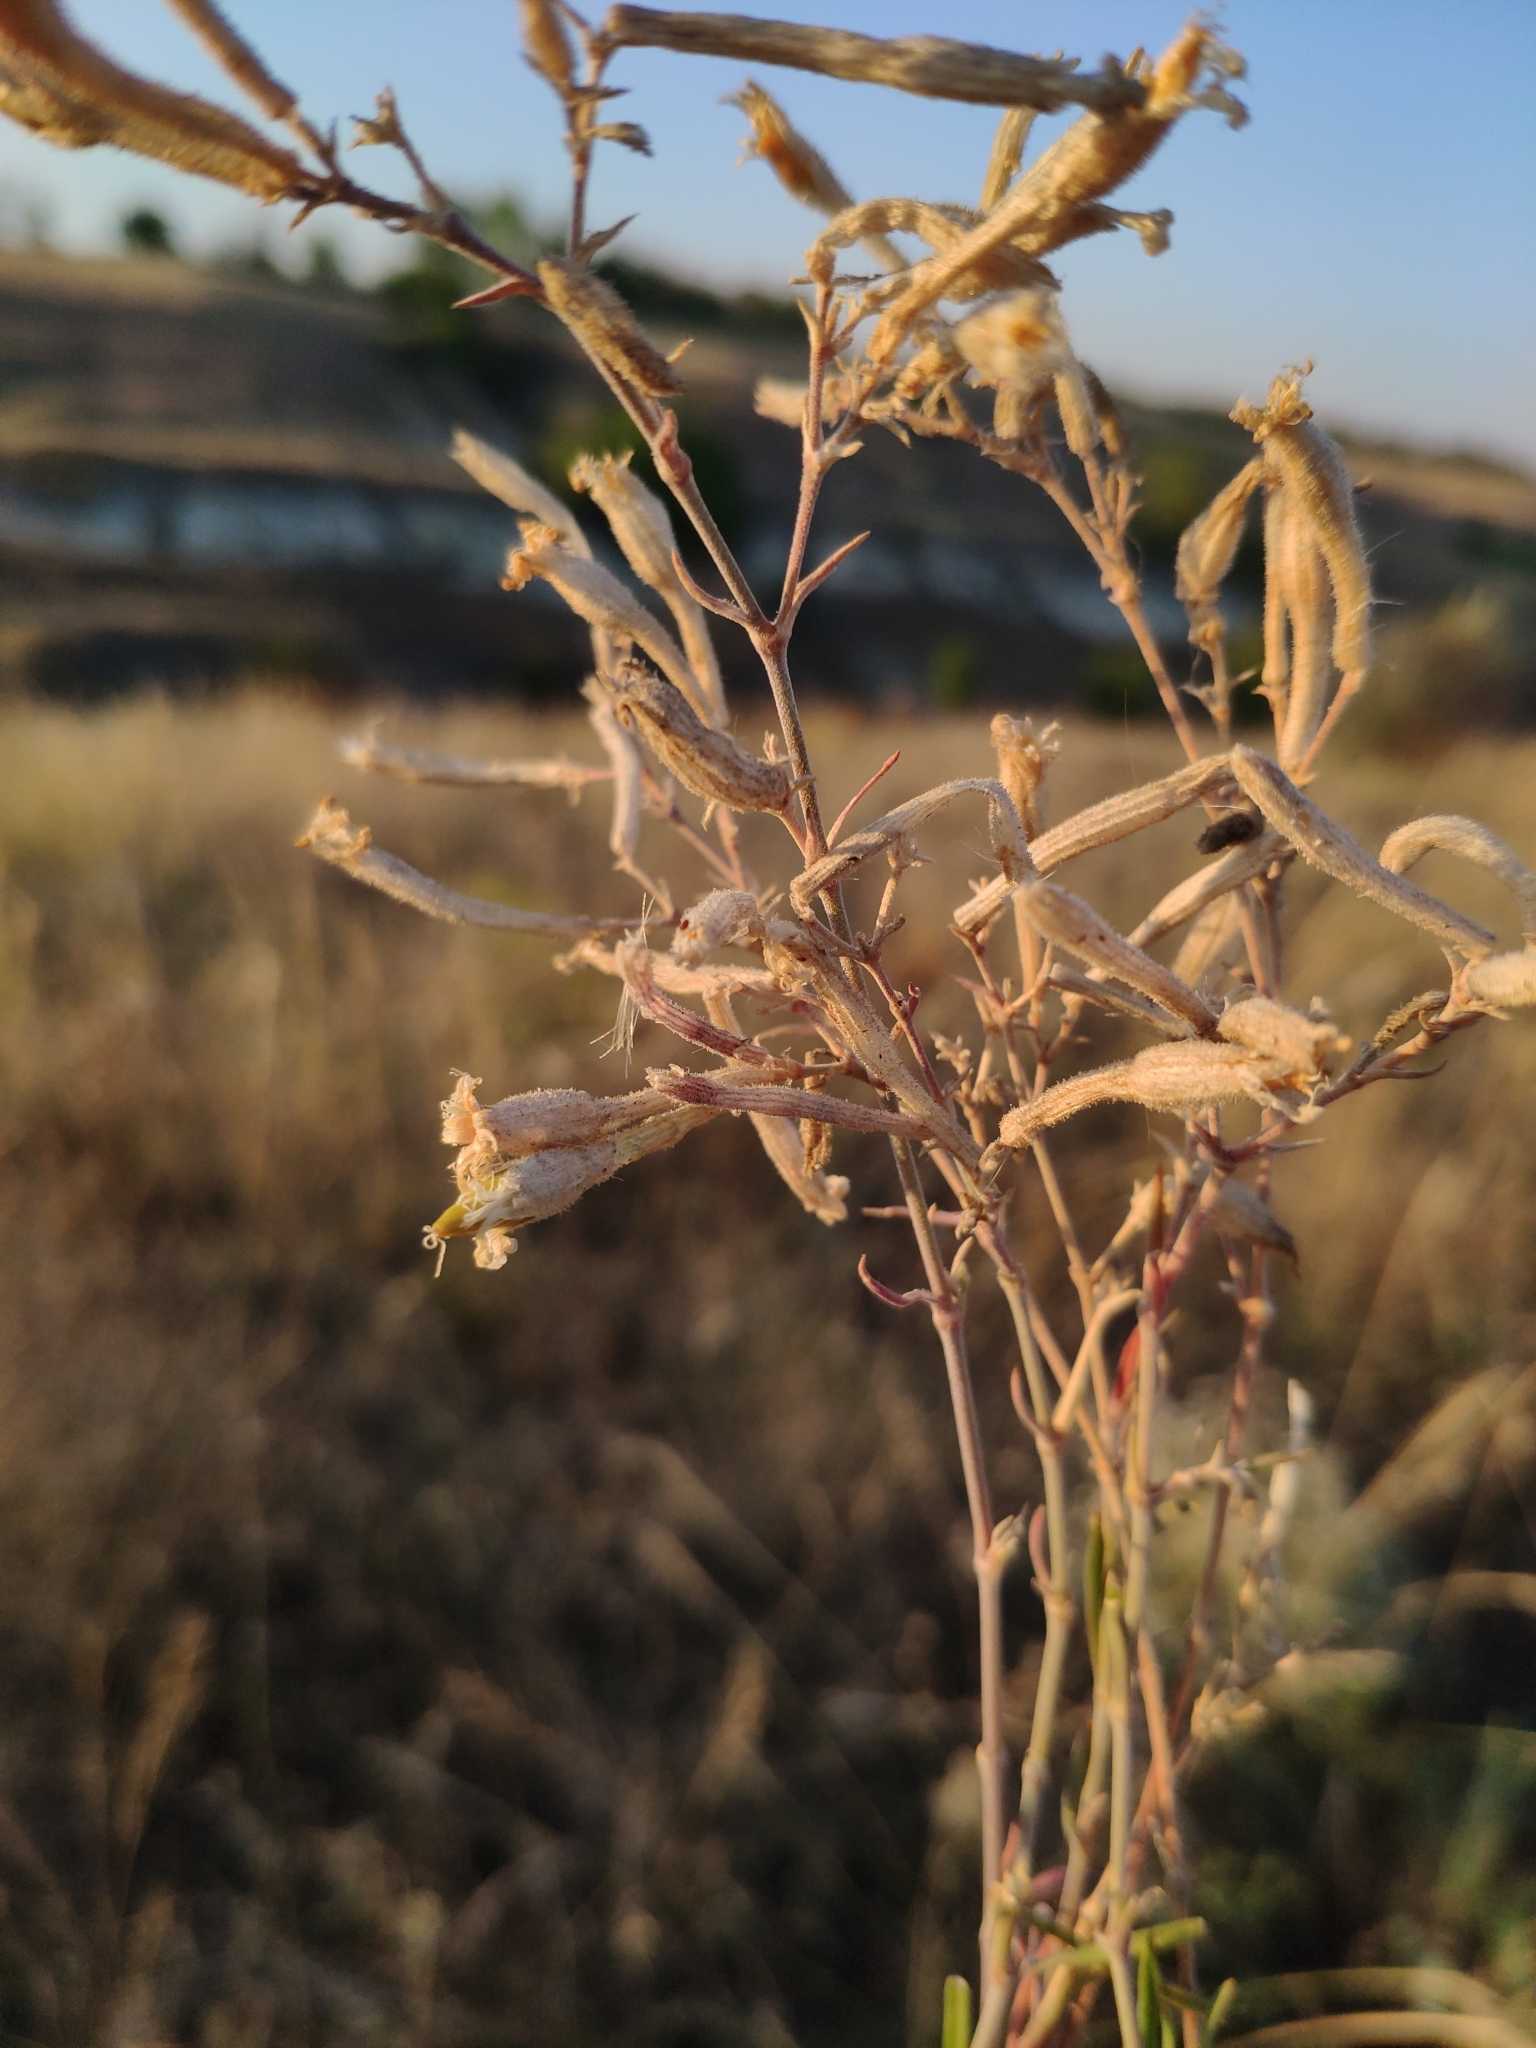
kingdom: Plantae
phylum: Tracheophyta
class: Magnoliopsida
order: Caryophyllales
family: Caryophyllaceae
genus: Silene
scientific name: Silene supina
